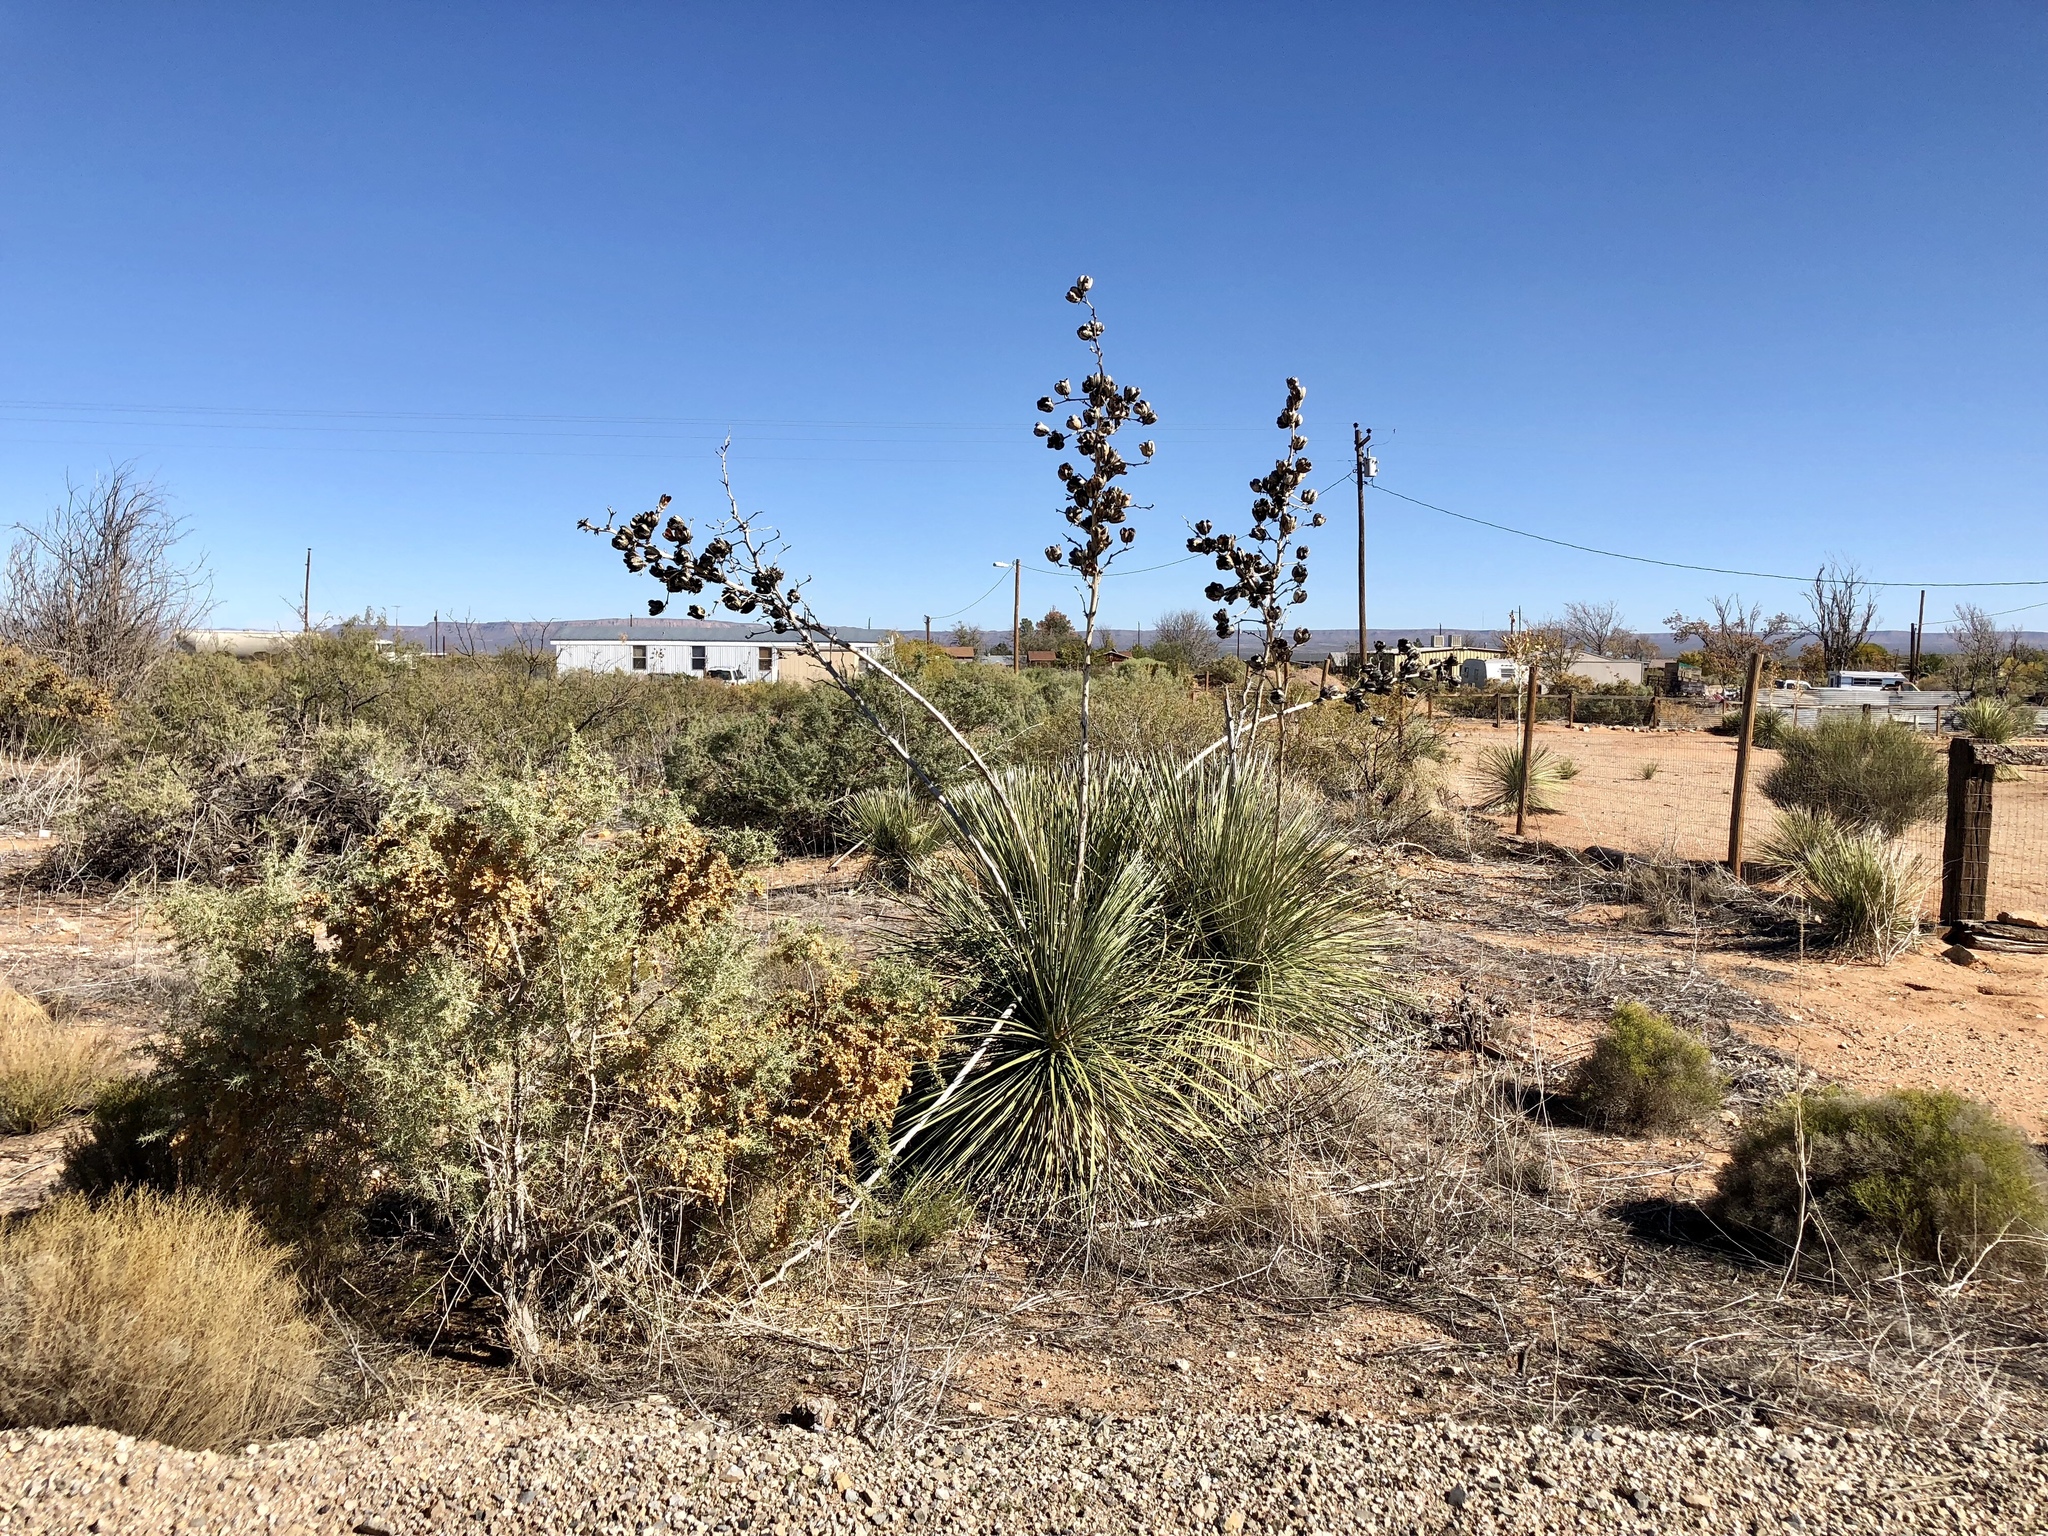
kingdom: Plantae
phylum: Tracheophyta
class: Liliopsida
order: Asparagales
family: Asparagaceae
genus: Yucca
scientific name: Yucca elata
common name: Palmella
